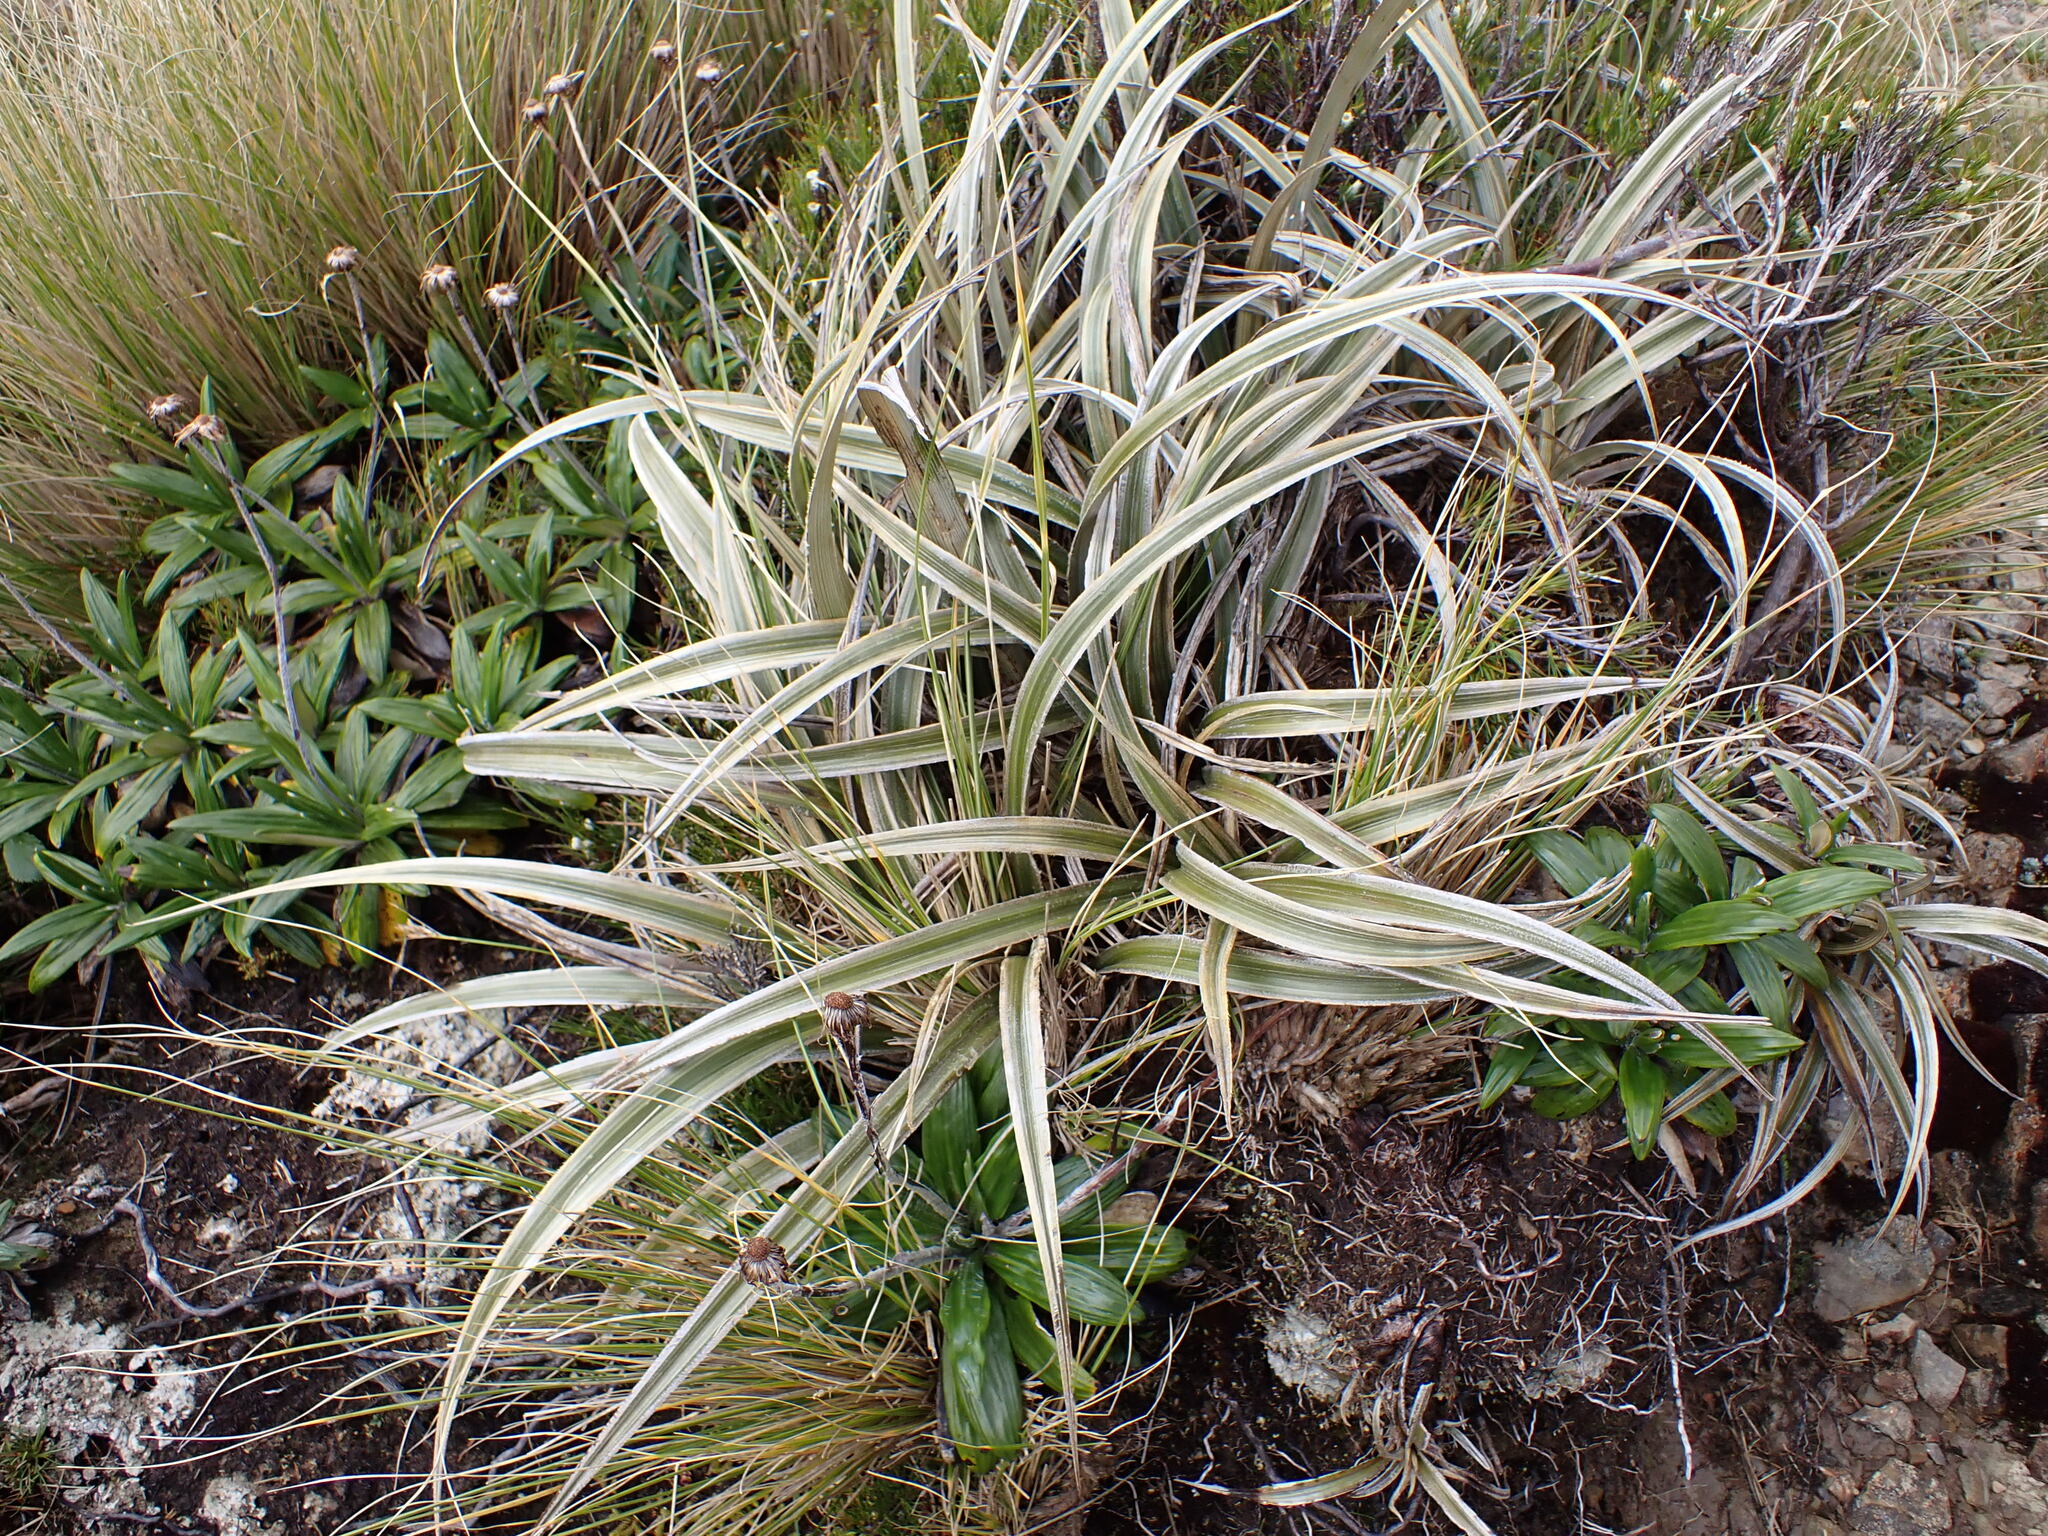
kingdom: Plantae
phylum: Tracheophyta
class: Liliopsida
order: Asparagales
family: Asteliaceae
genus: Astelia
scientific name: Astelia nervosa
